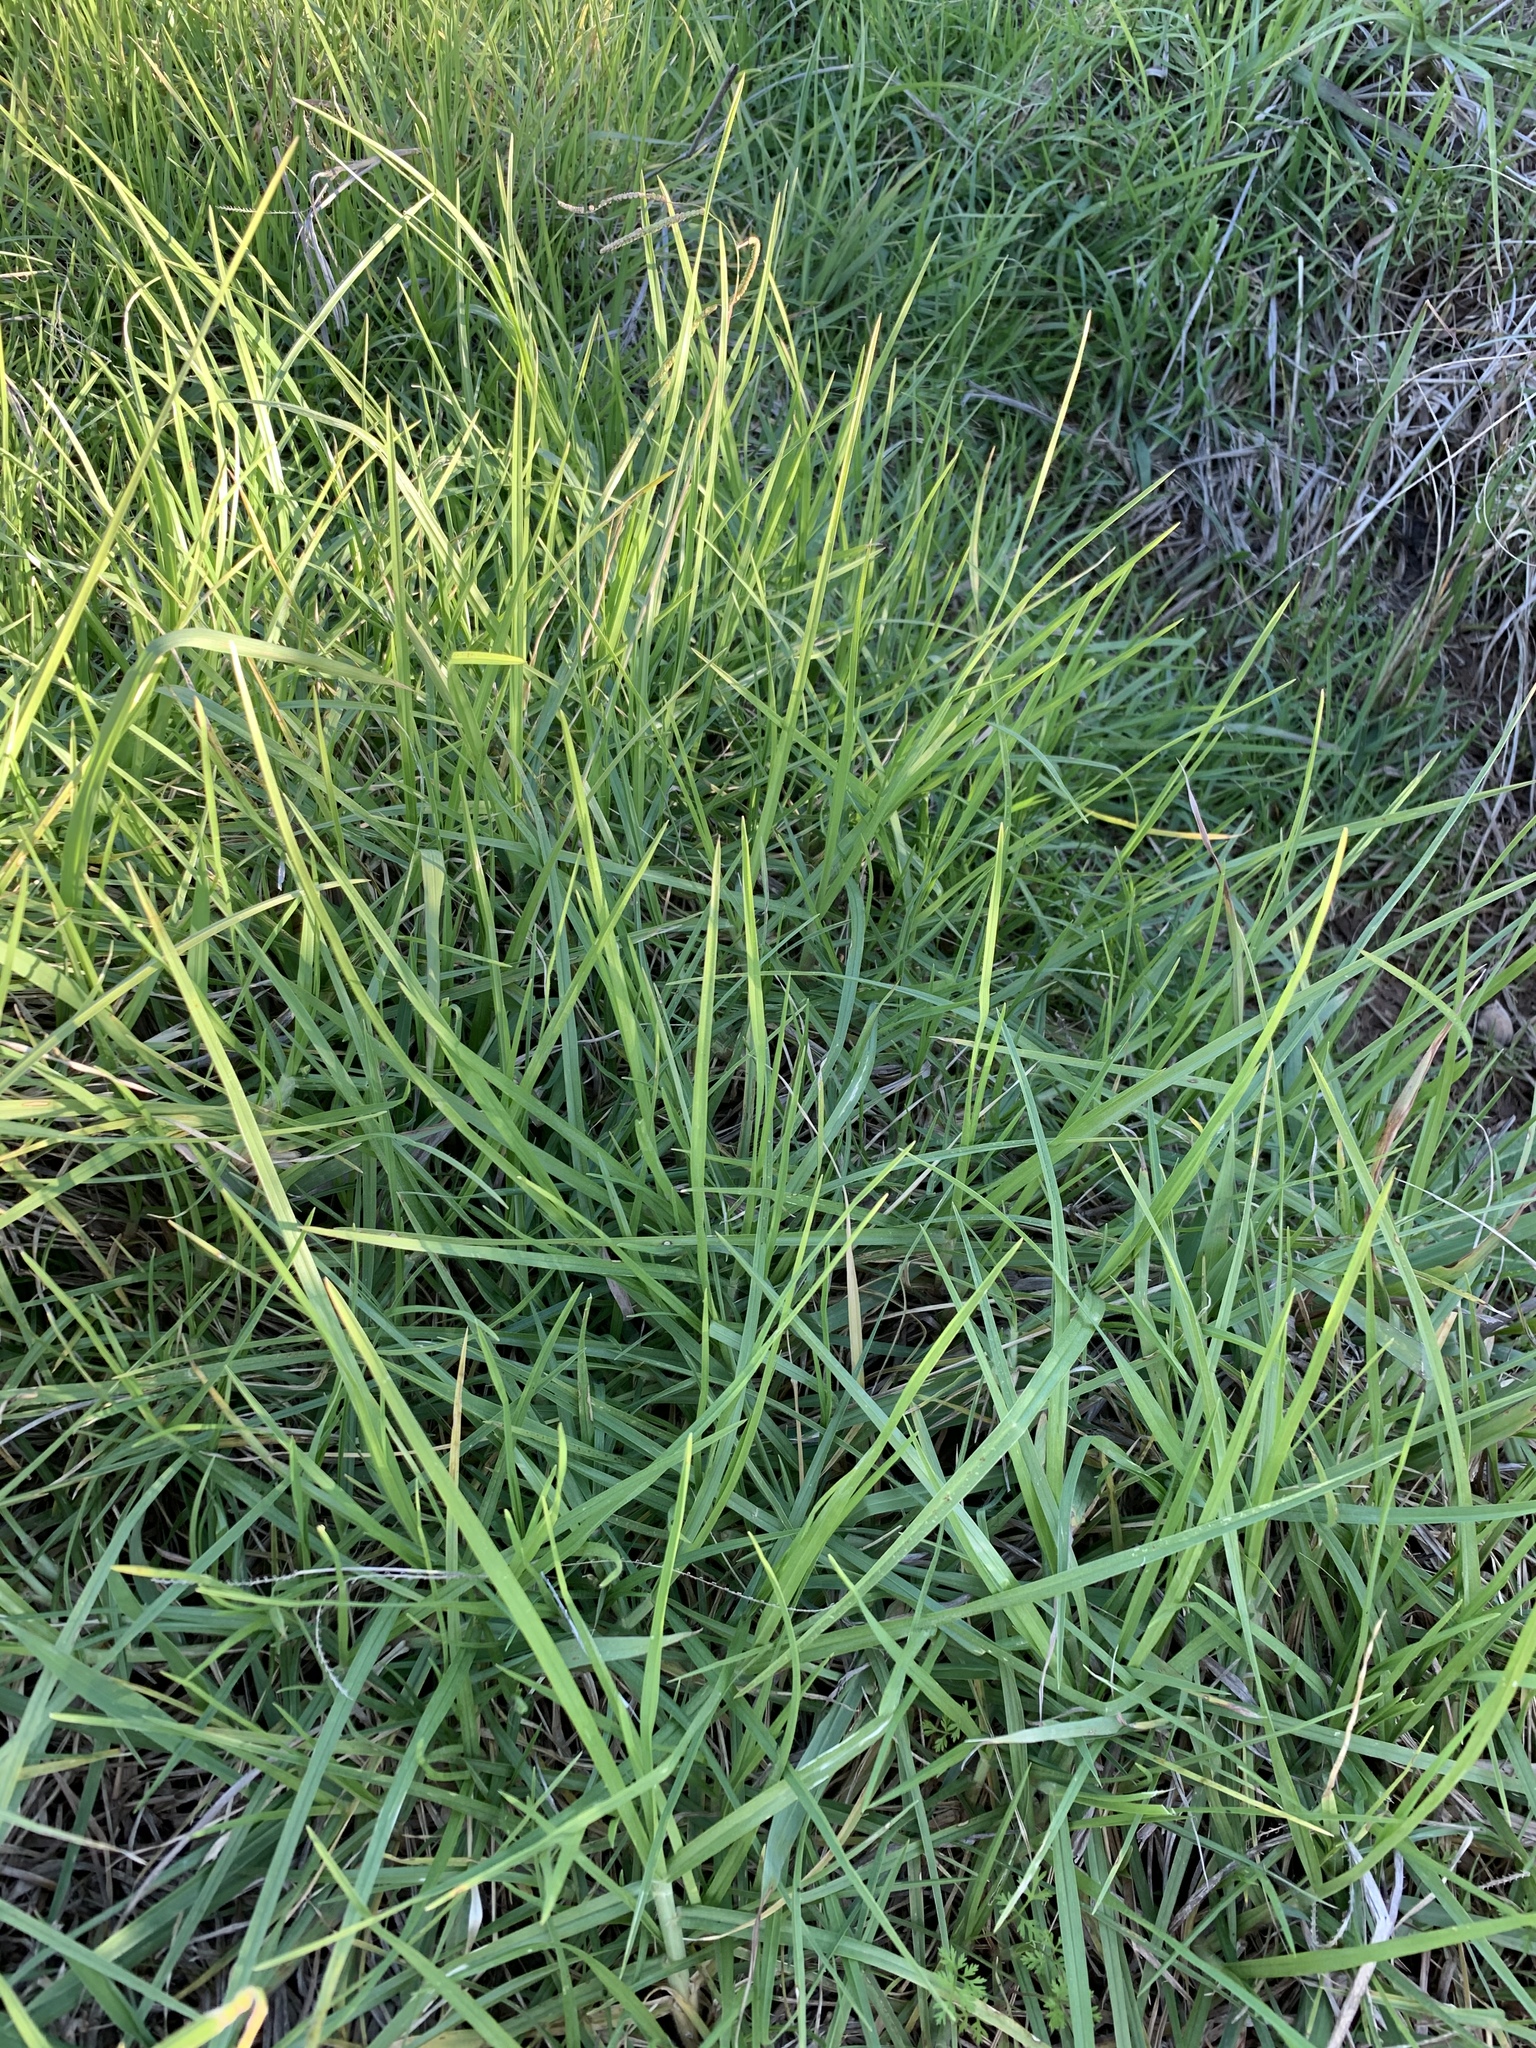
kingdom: Plantae
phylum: Tracheophyta
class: Liliopsida
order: Poales
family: Poaceae
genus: Cenchrus
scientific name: Cenchrus clandestinus
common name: Kikuyugrass
